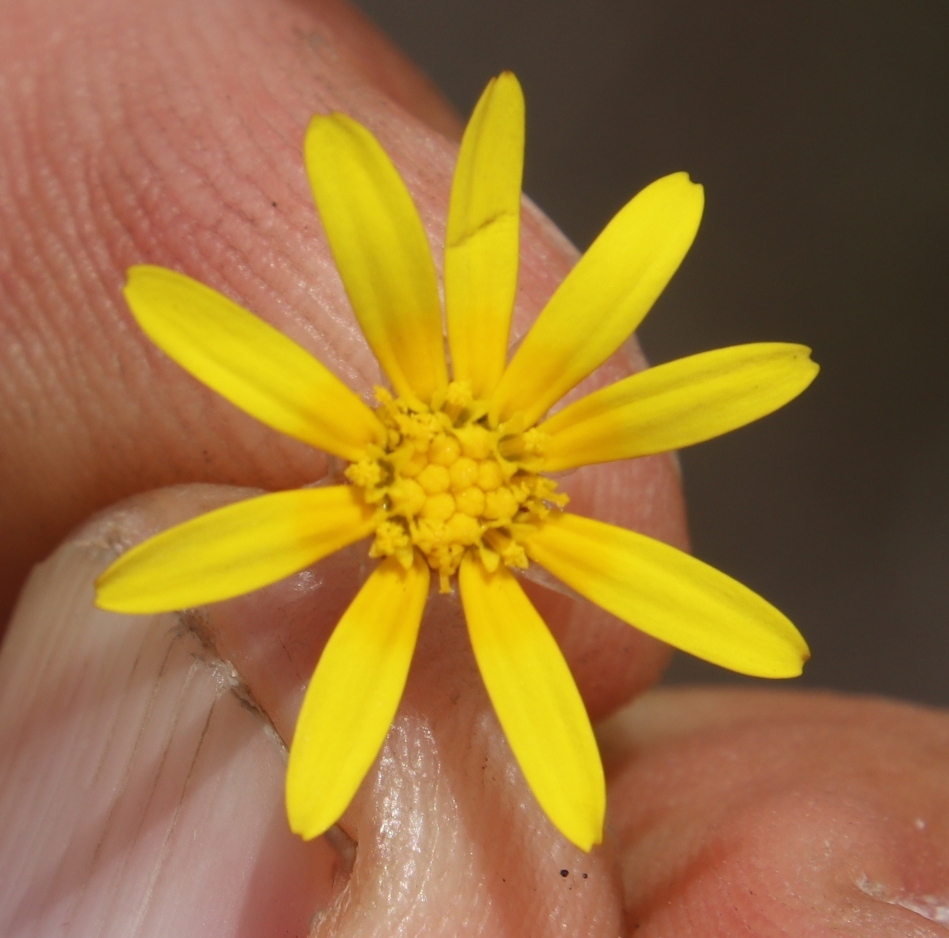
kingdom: Plantae
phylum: Tracheophyta
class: Magnoliopsida
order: Asterales
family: Asteraceae
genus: Ursinia
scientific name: Ursinia nudicaulis
